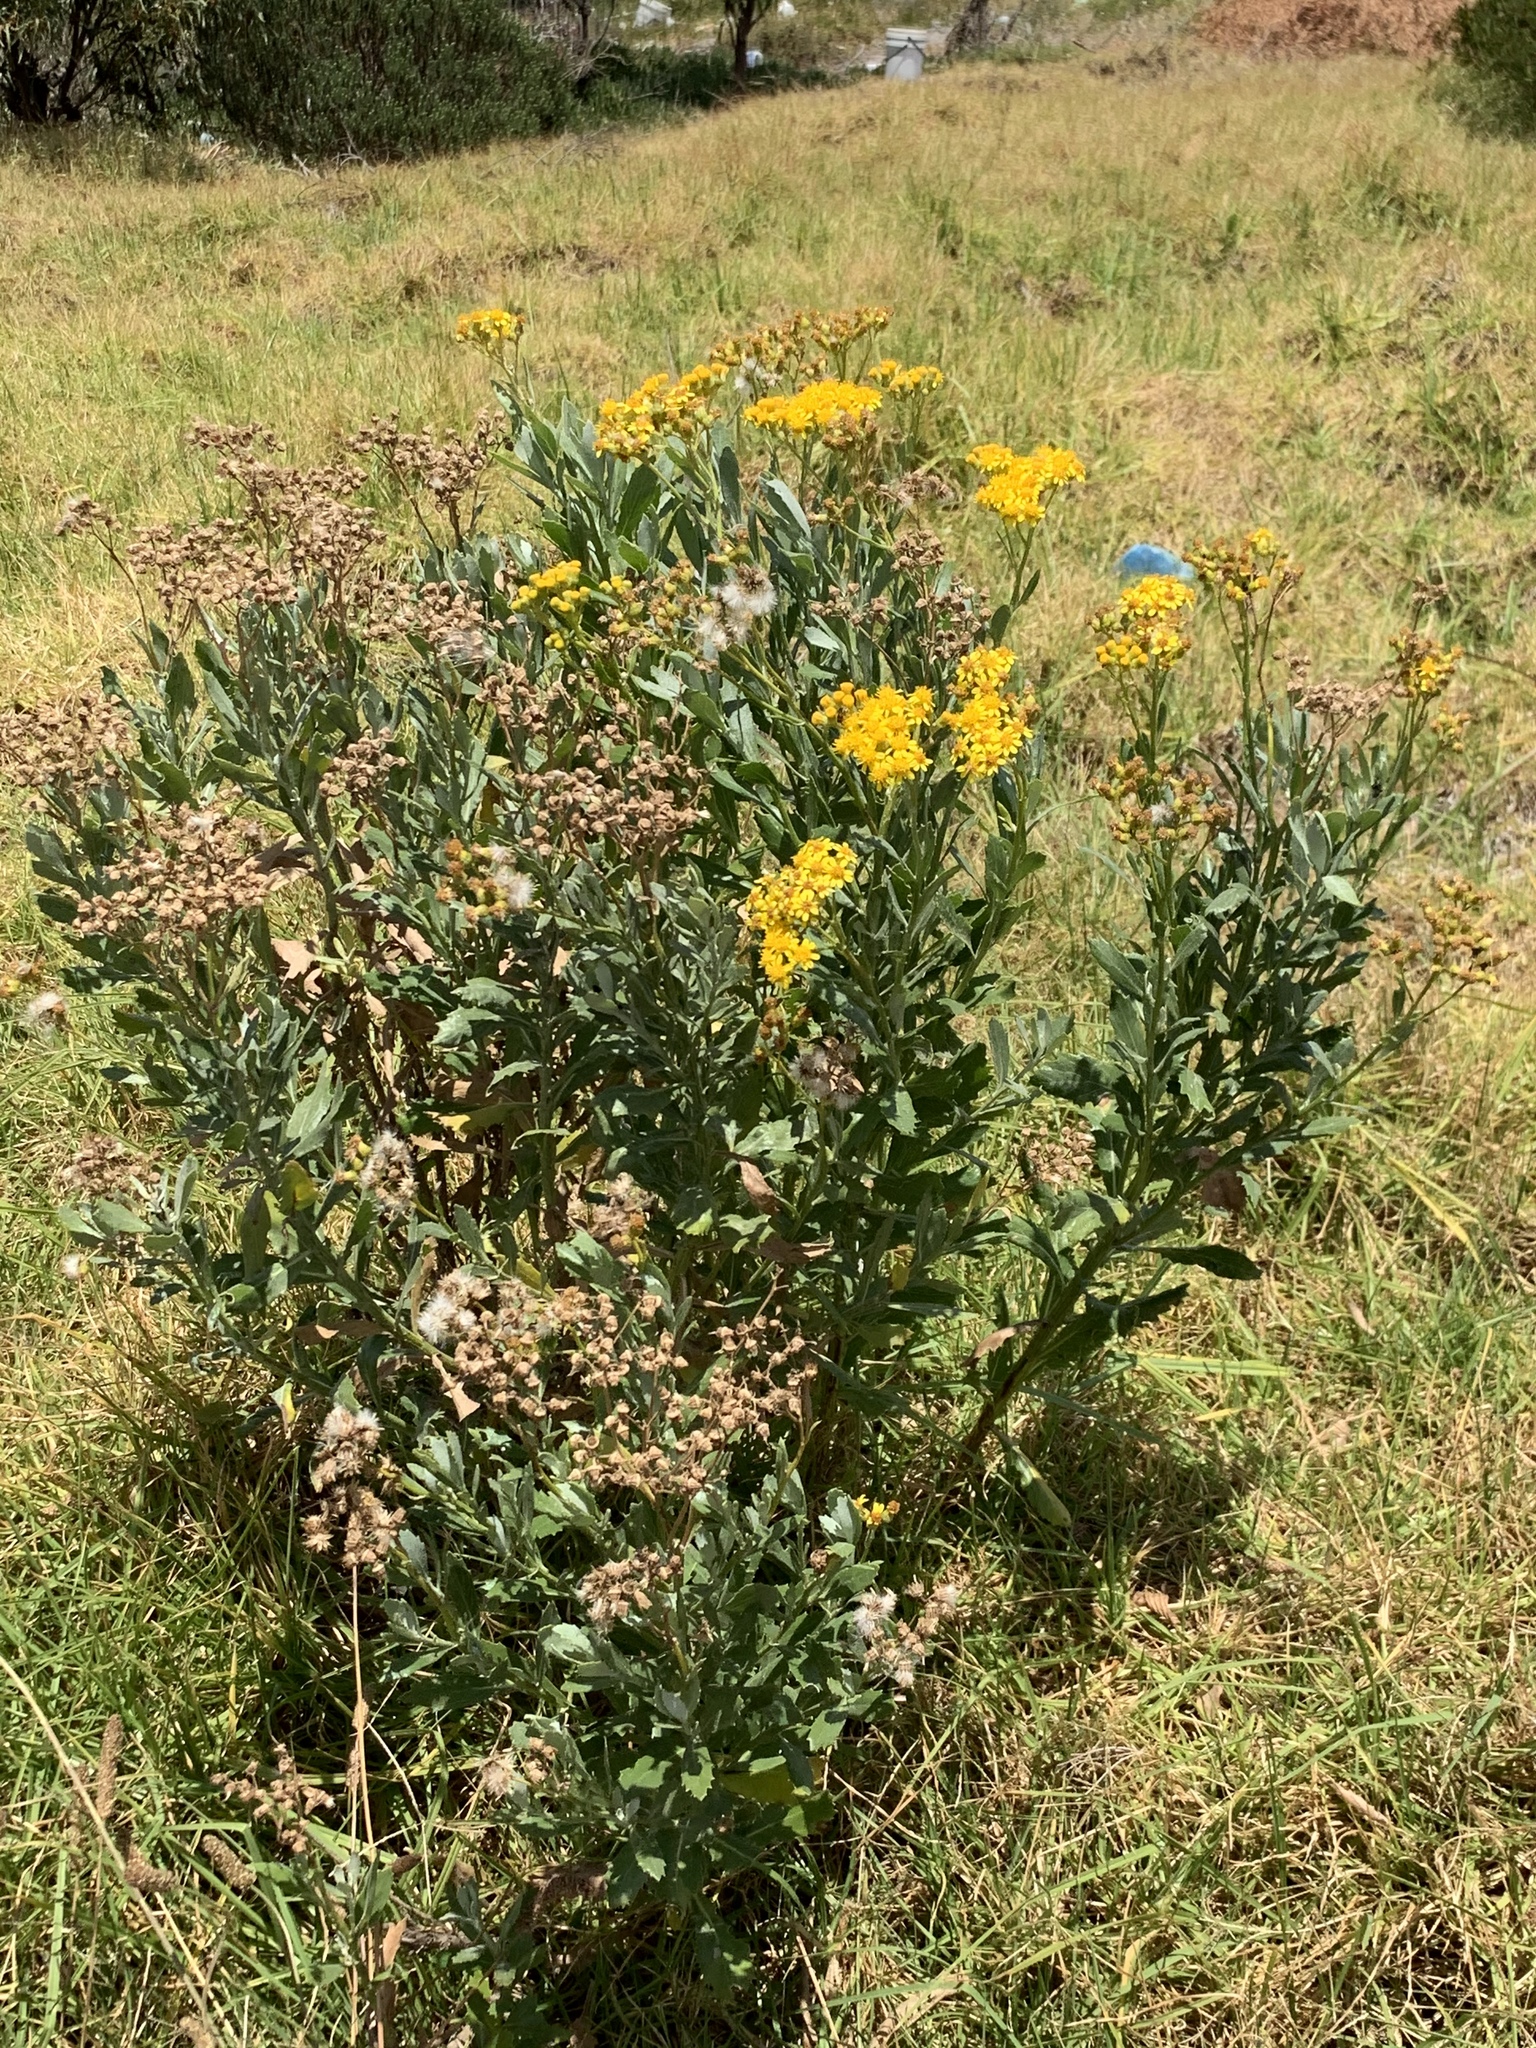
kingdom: Plantae
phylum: Tracheophyta
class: Magnoliopsida
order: Asterales
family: Asteraceae
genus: Senecio
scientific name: Senecio halimifolius
